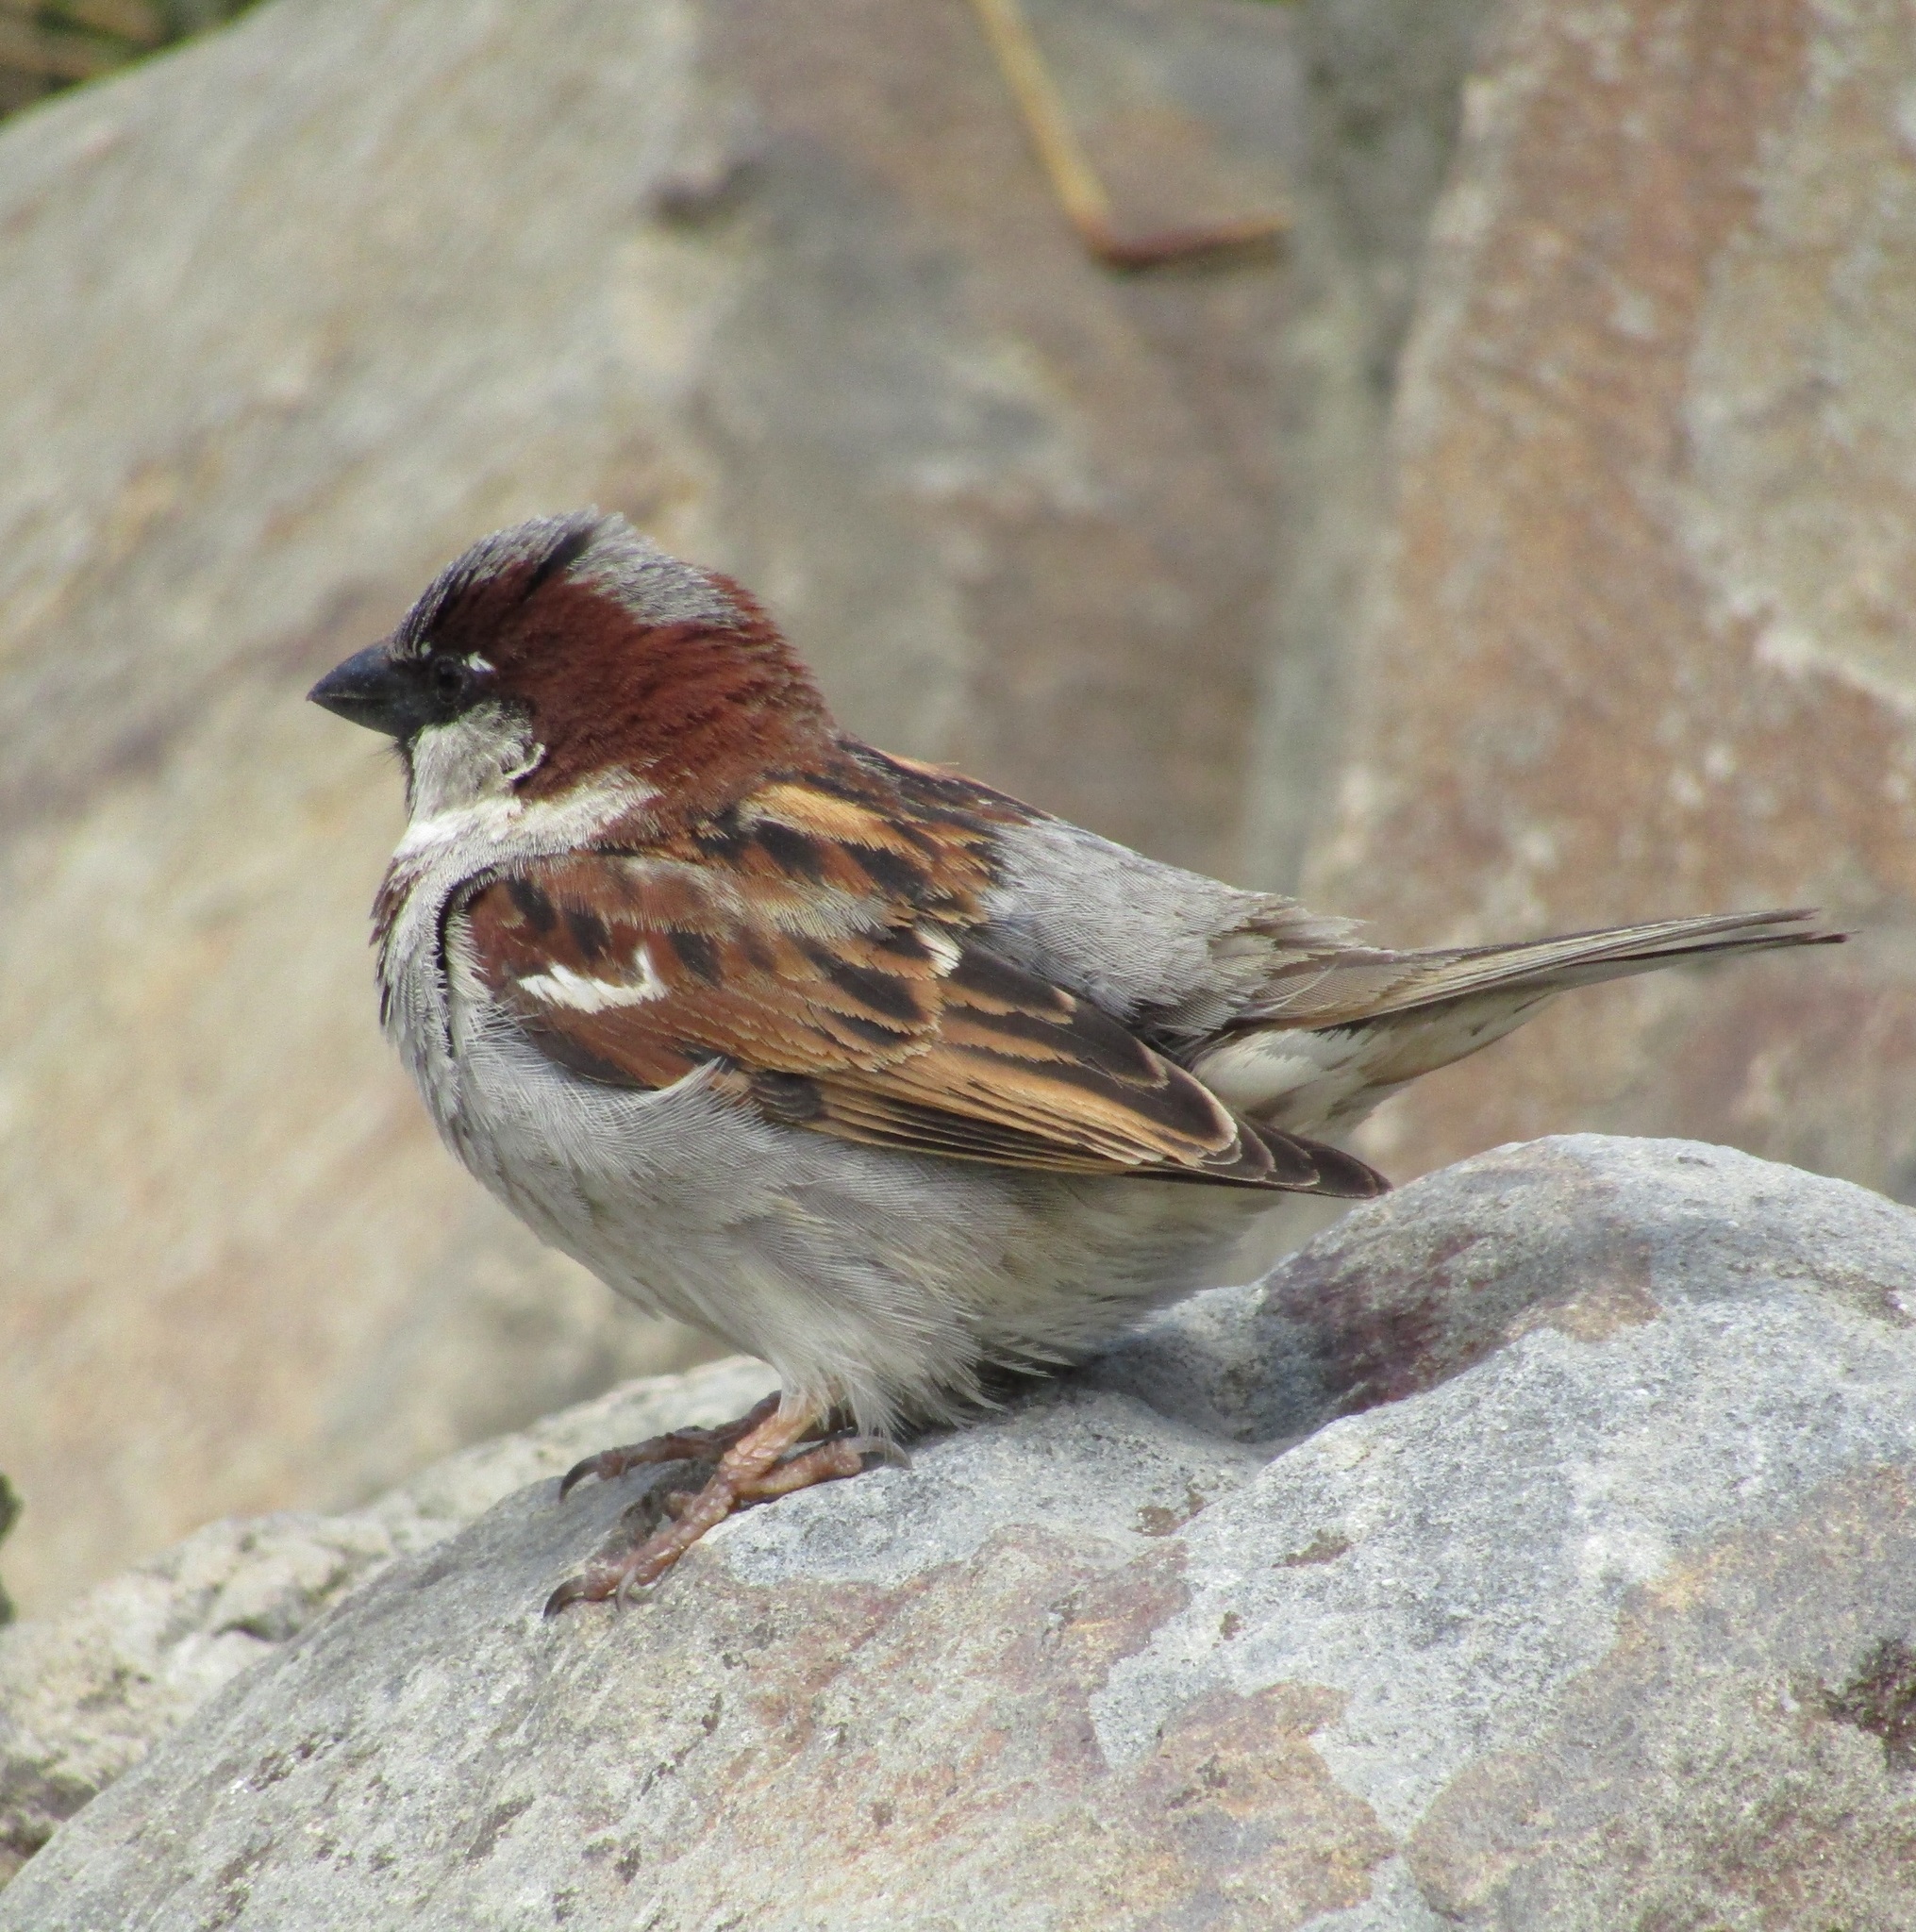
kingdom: Animalia
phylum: Chordata
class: Aves
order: Passeriformes
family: Passeridae
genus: Passer
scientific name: Passer domesticus
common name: House sparrow
